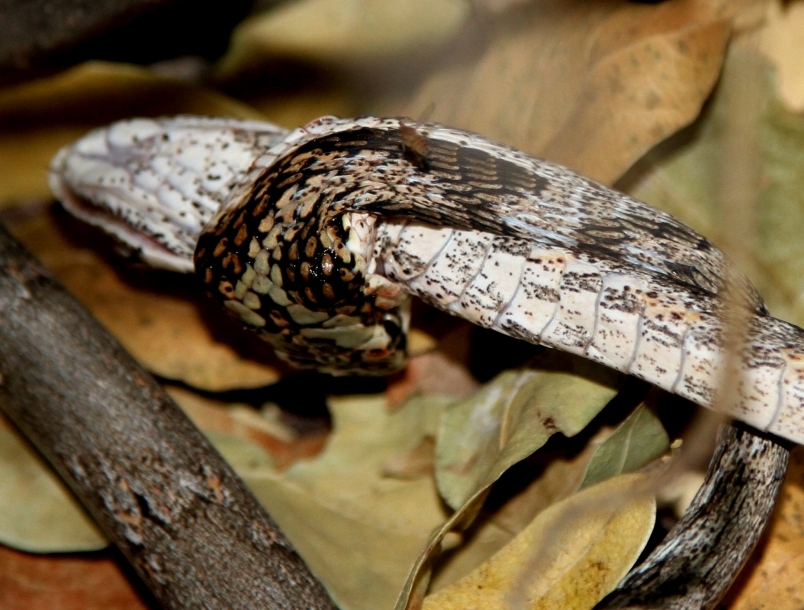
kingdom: Animalia
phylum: Chordata
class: Squamata
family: Colubridae
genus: Thelotornis
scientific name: Thelotornis capensis
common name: Savanna vine snake
